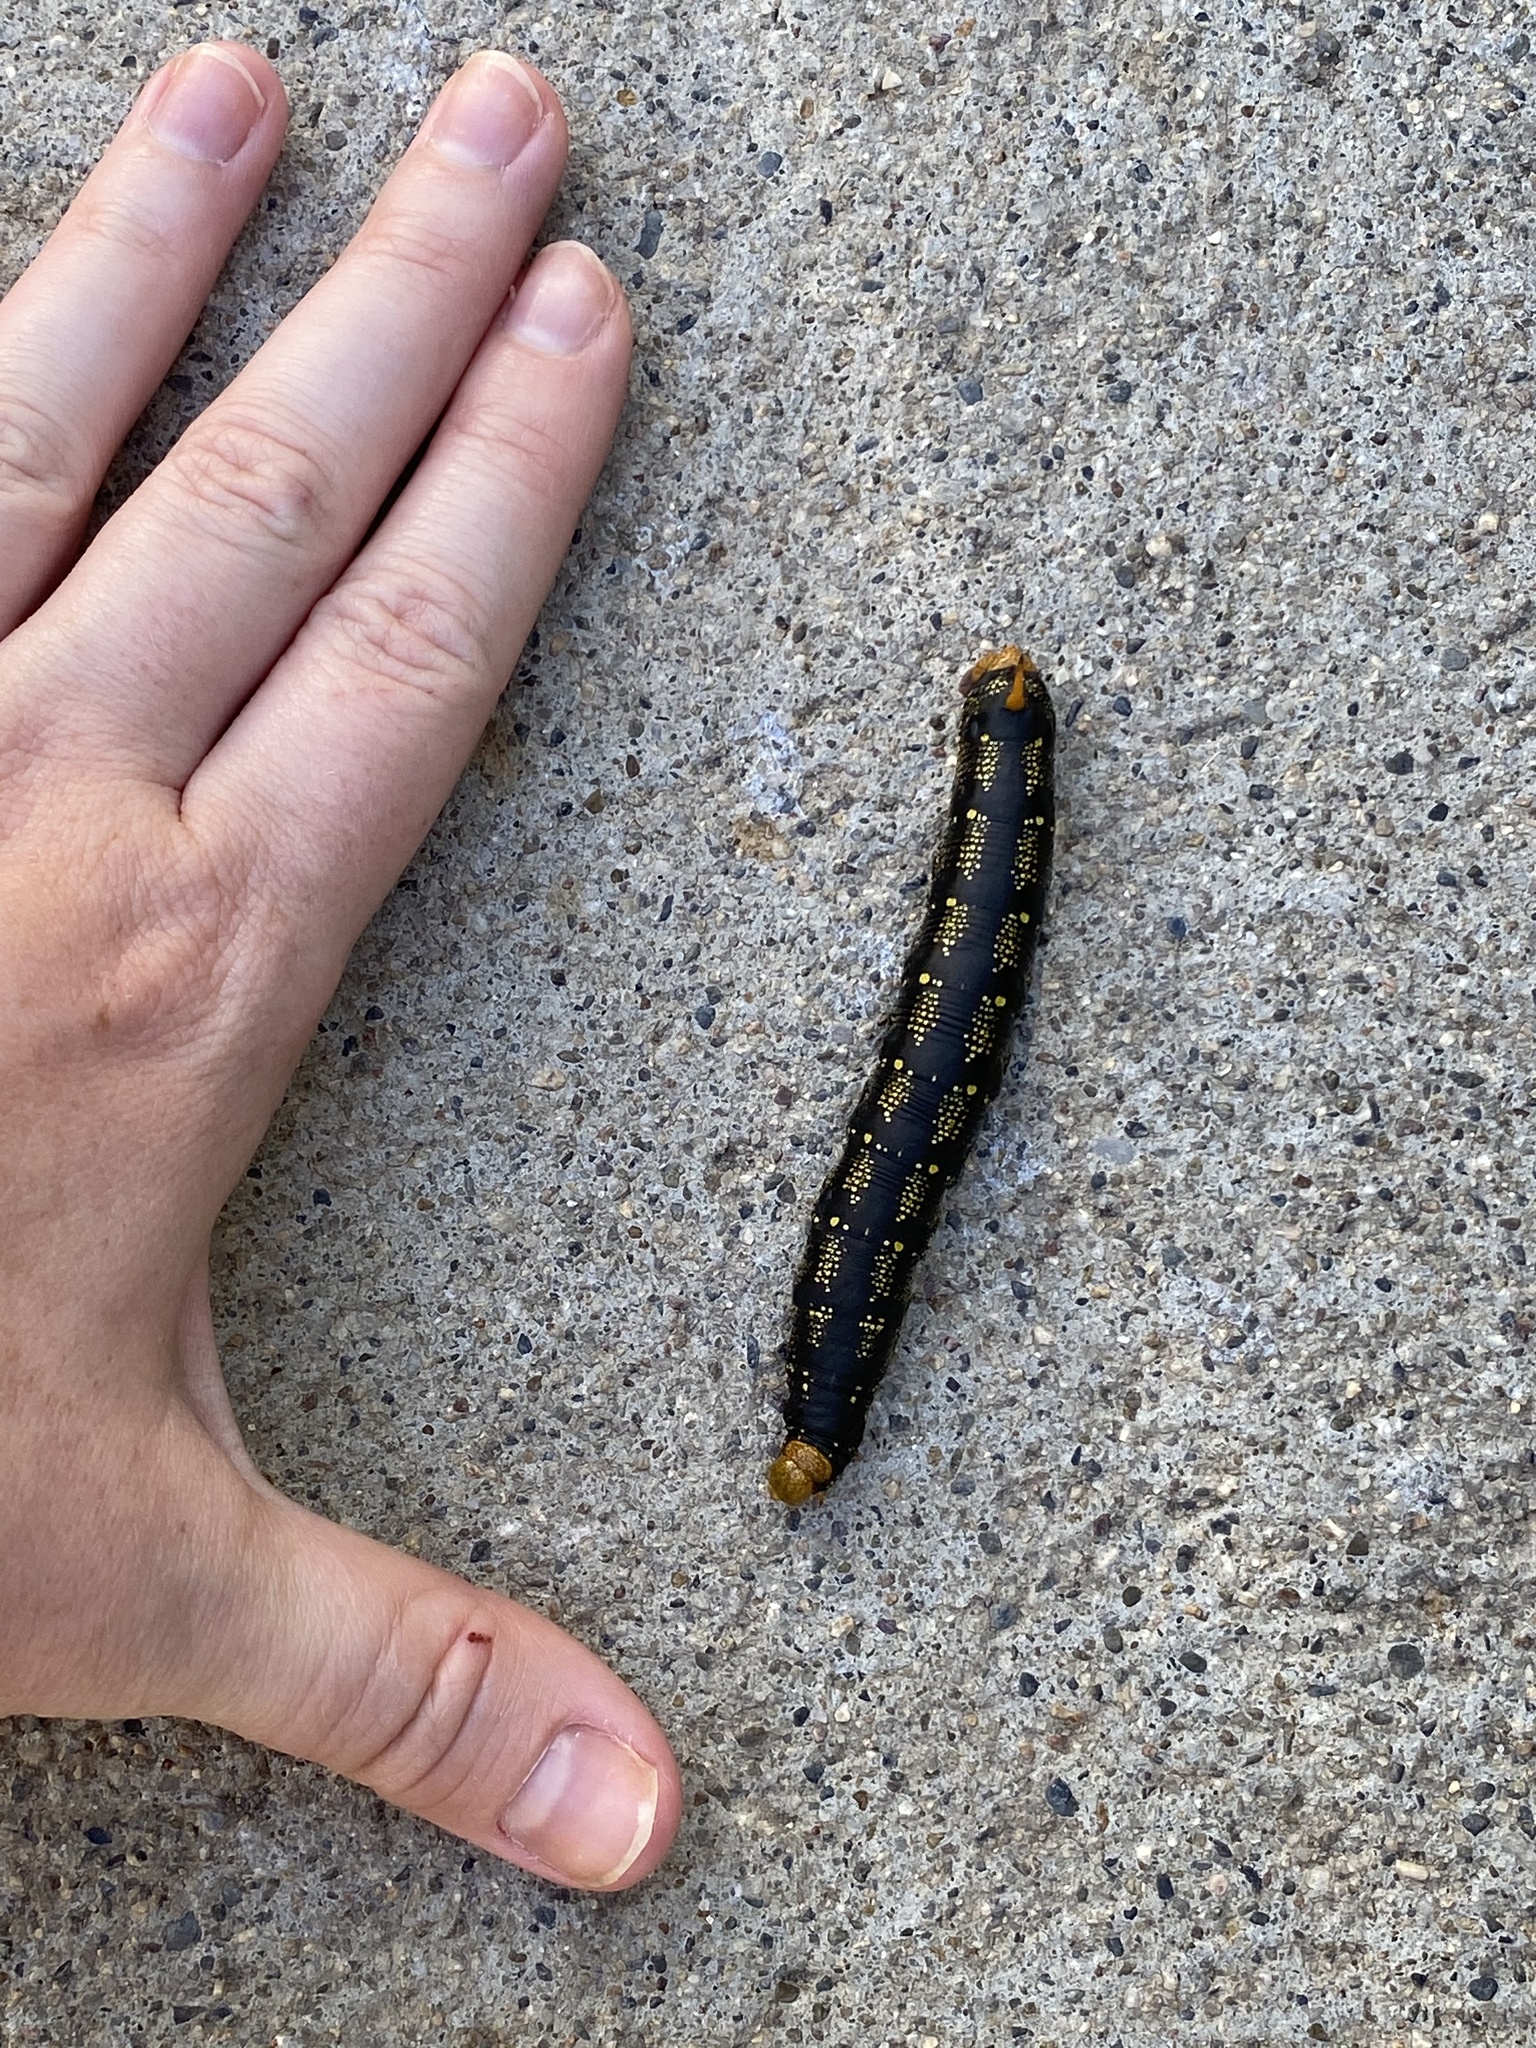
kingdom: Animalia
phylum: Arthropoda
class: Insecta
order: Lepidoptera
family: Sphingidae
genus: Hyles
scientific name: Hyles lineata
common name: White-lined sphinx
